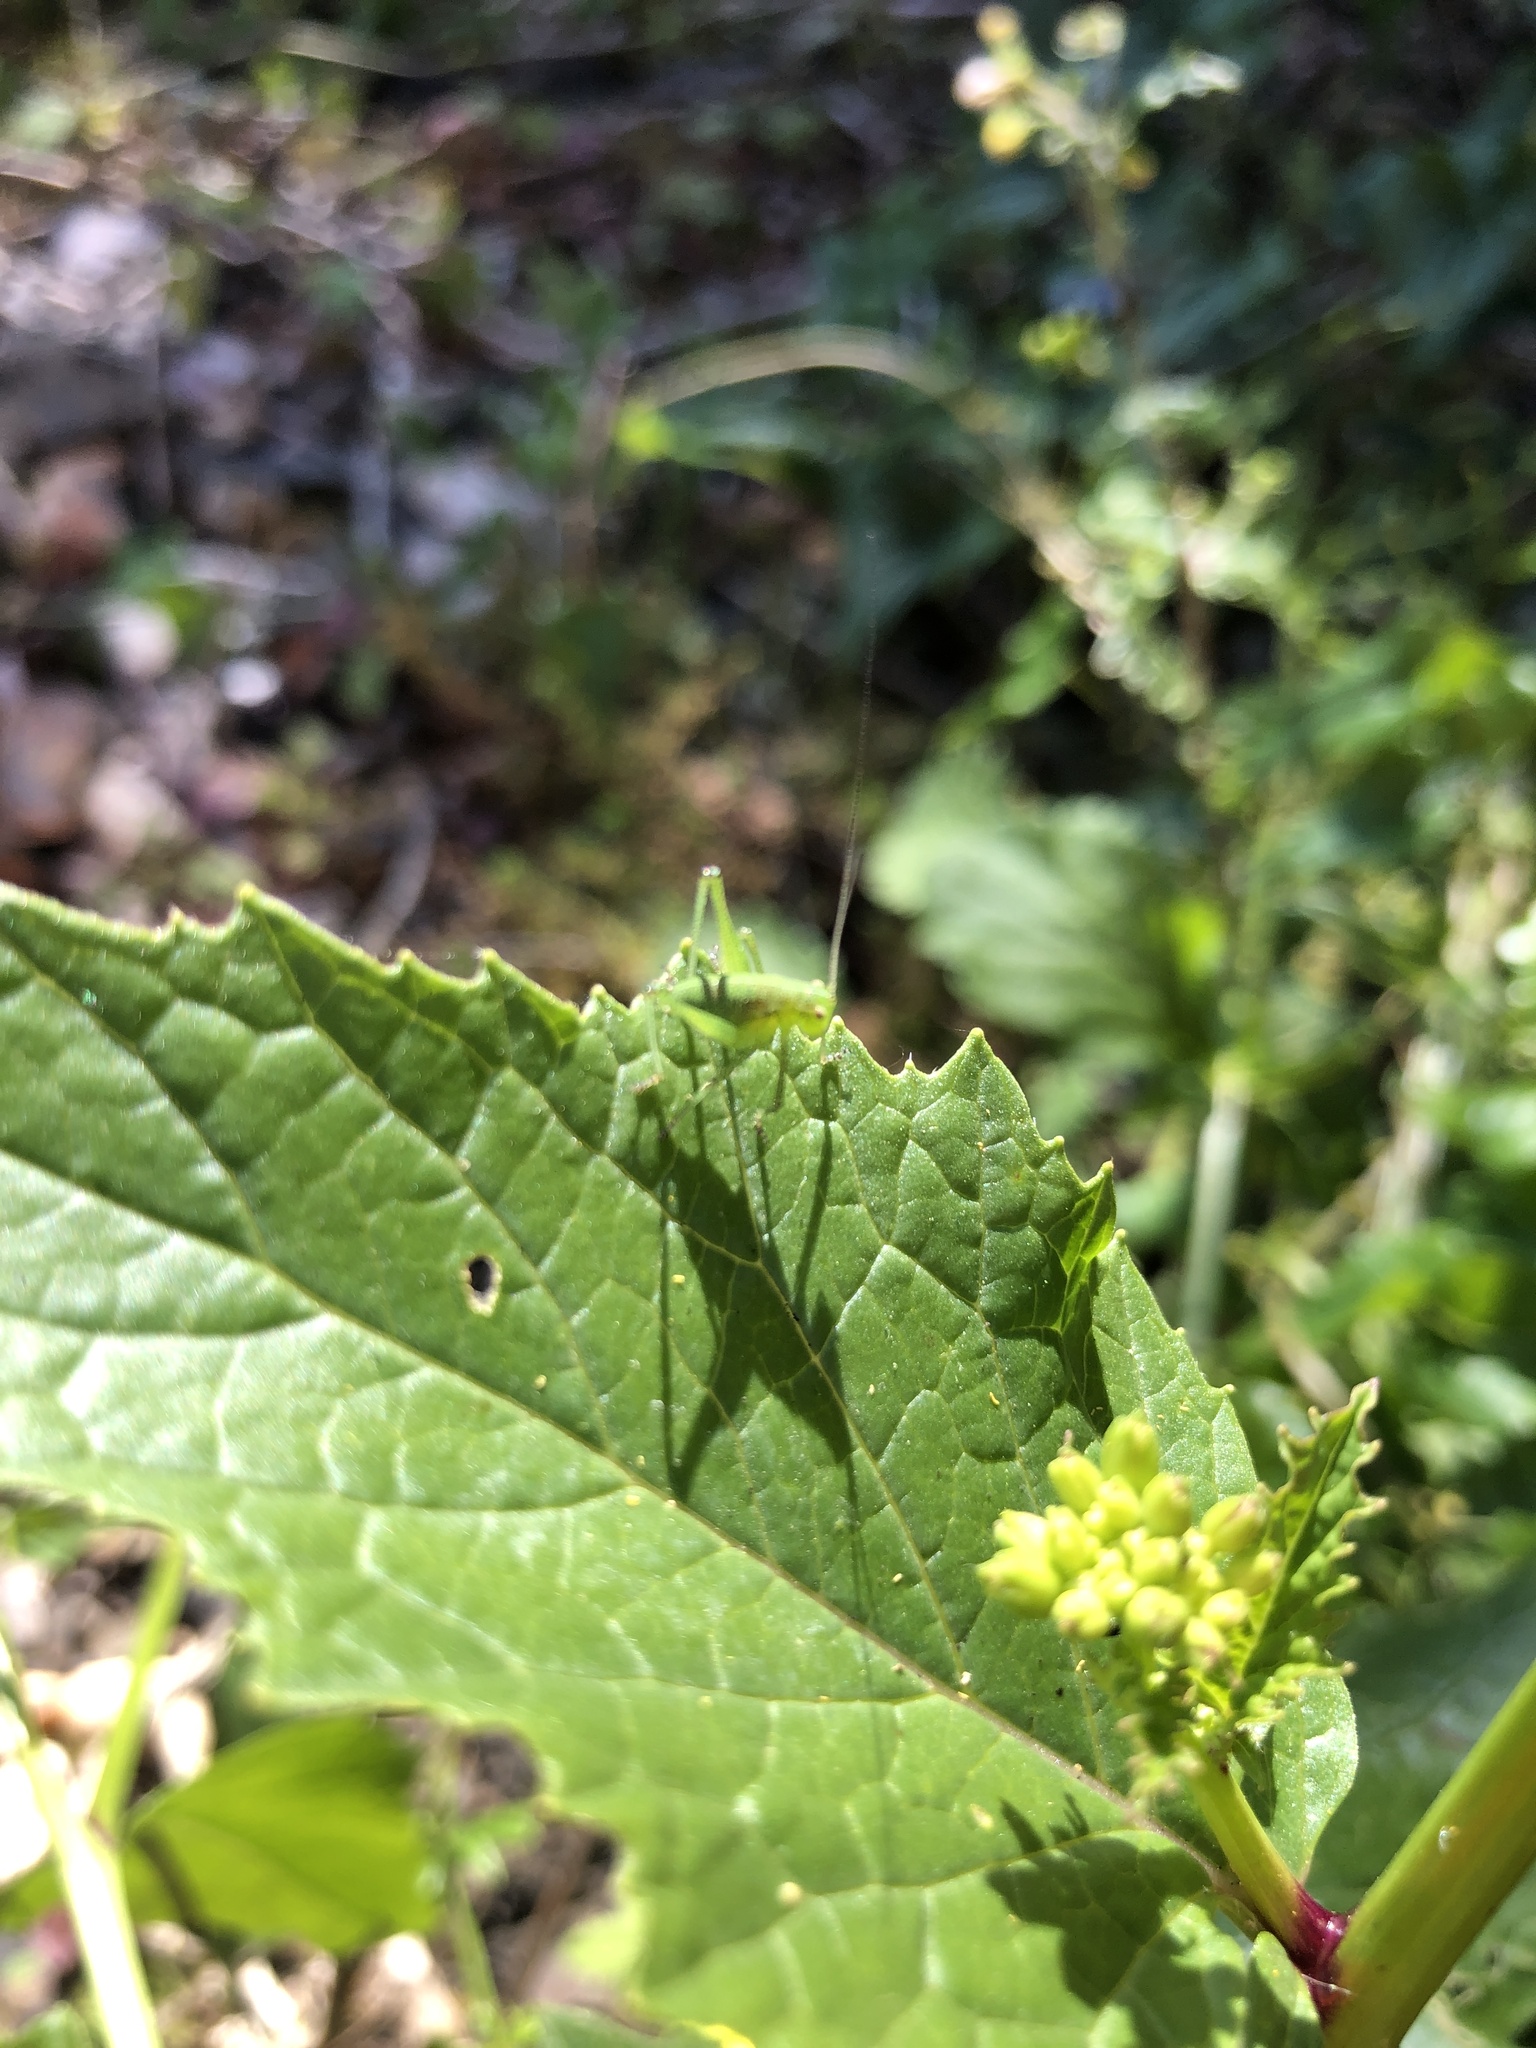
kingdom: Animalia
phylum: Arthropoda
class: Insecta
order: Orthoptera
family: Tettigoniidae
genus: Leptophyes
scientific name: Leptophyes punctatissima
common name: Speckled bush-cricket
